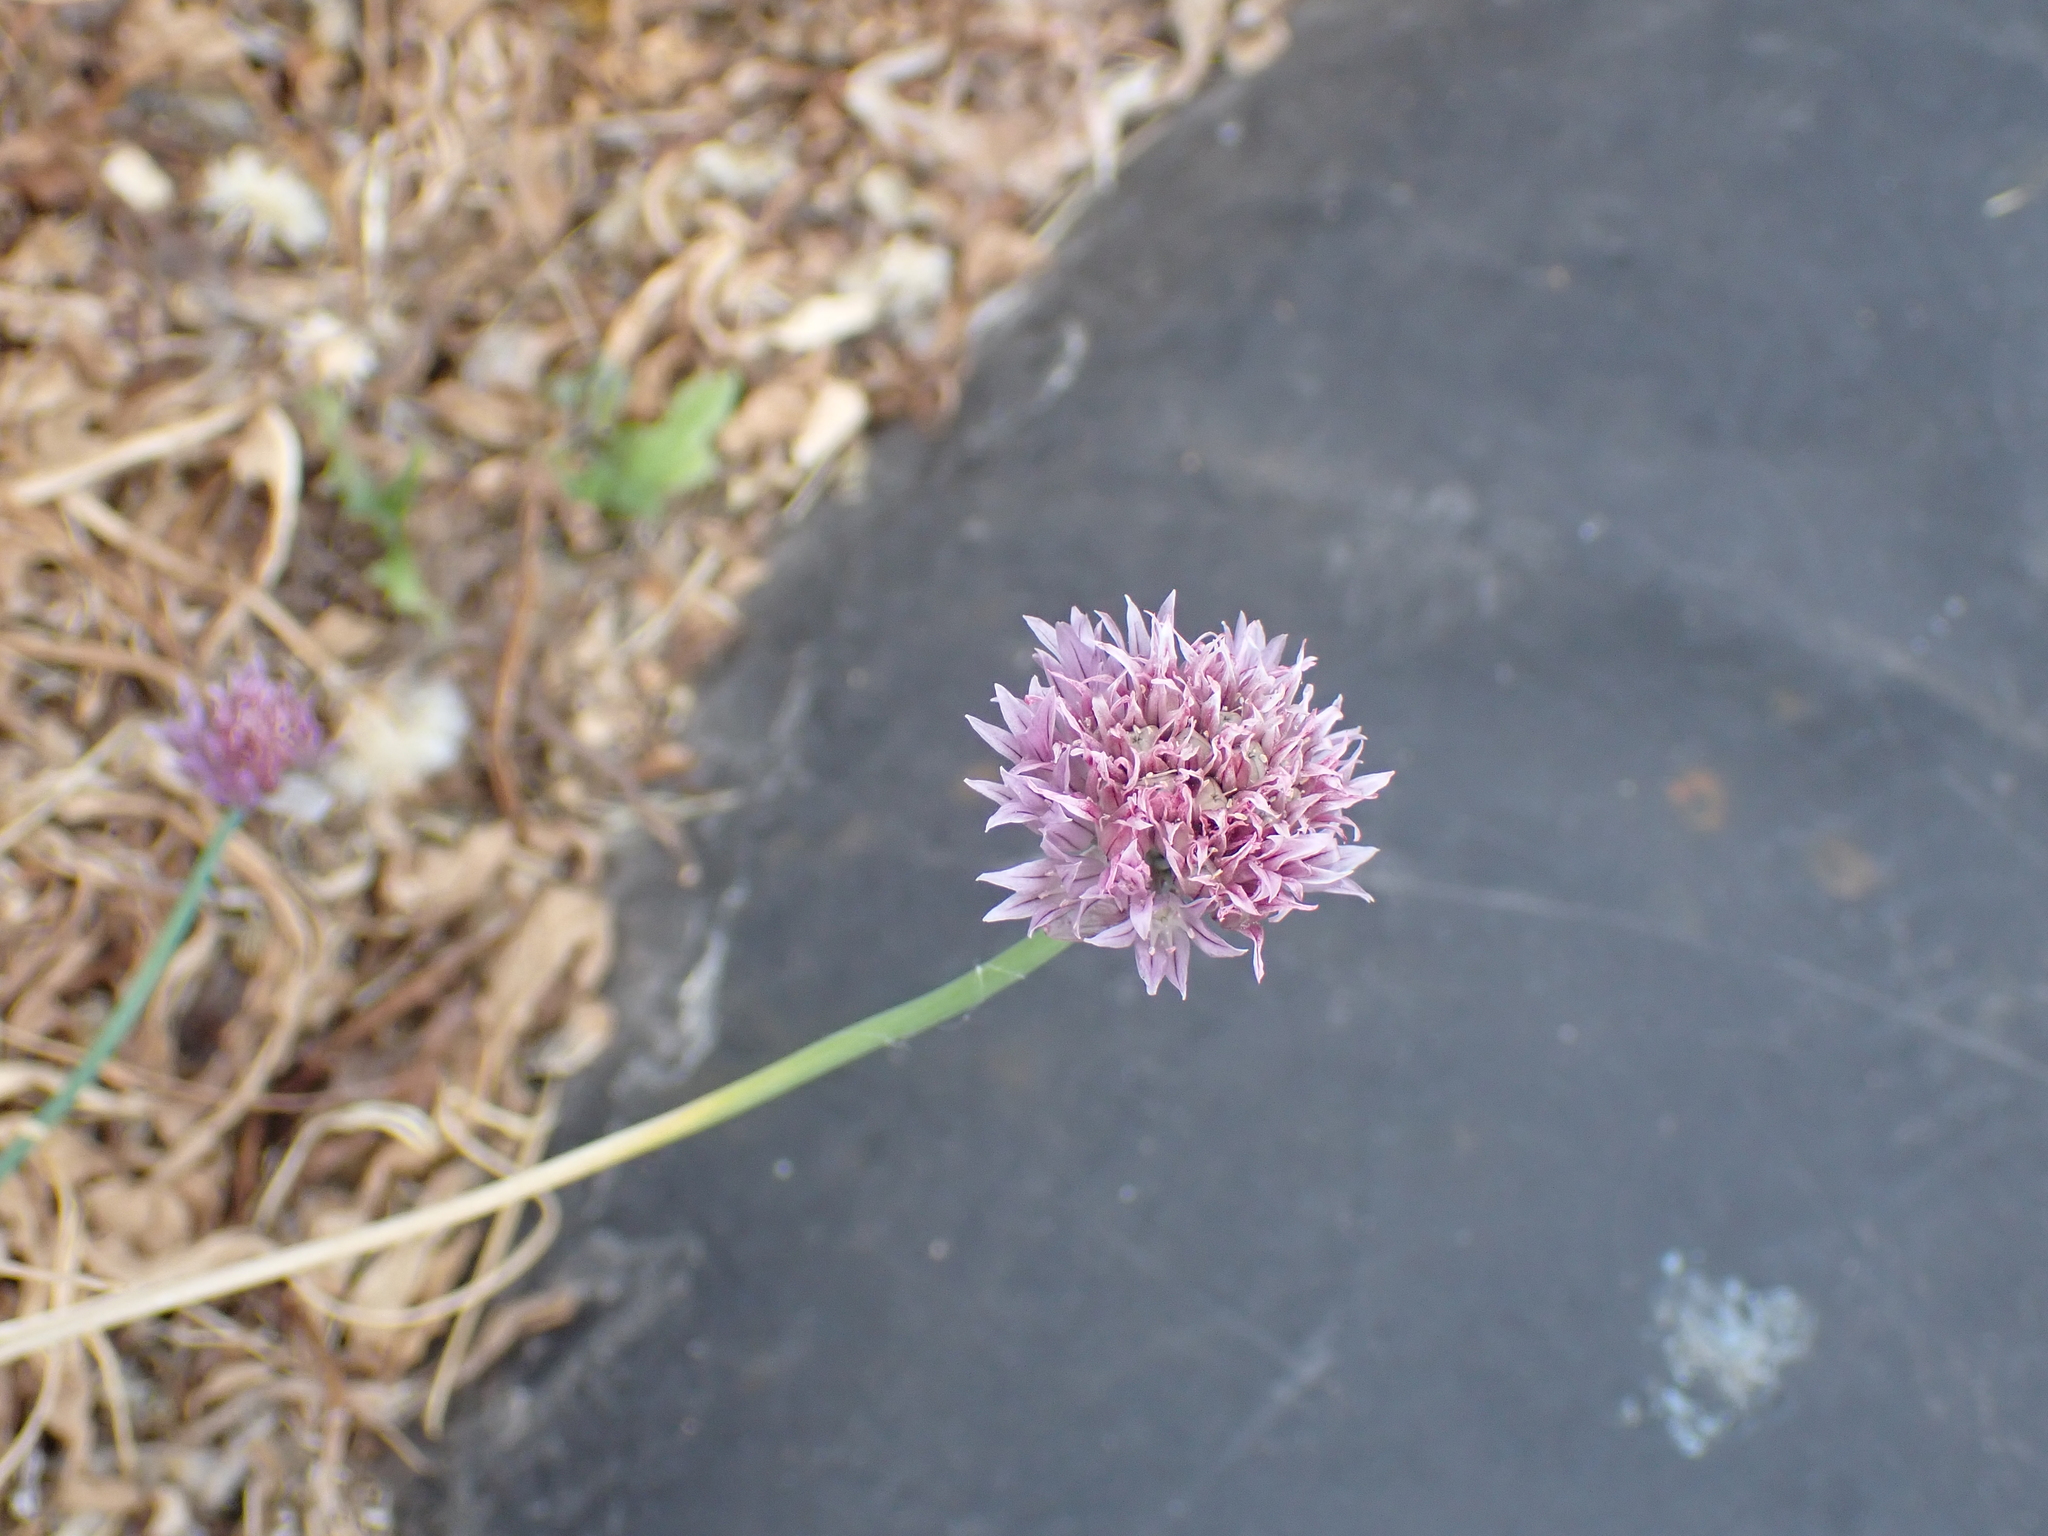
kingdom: Plantae
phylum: Tracheophyta
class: Liliopsida
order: Asparagales
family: Amaryllidaceae
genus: Allium
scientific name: Allium schoenoprasum
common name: Chives
